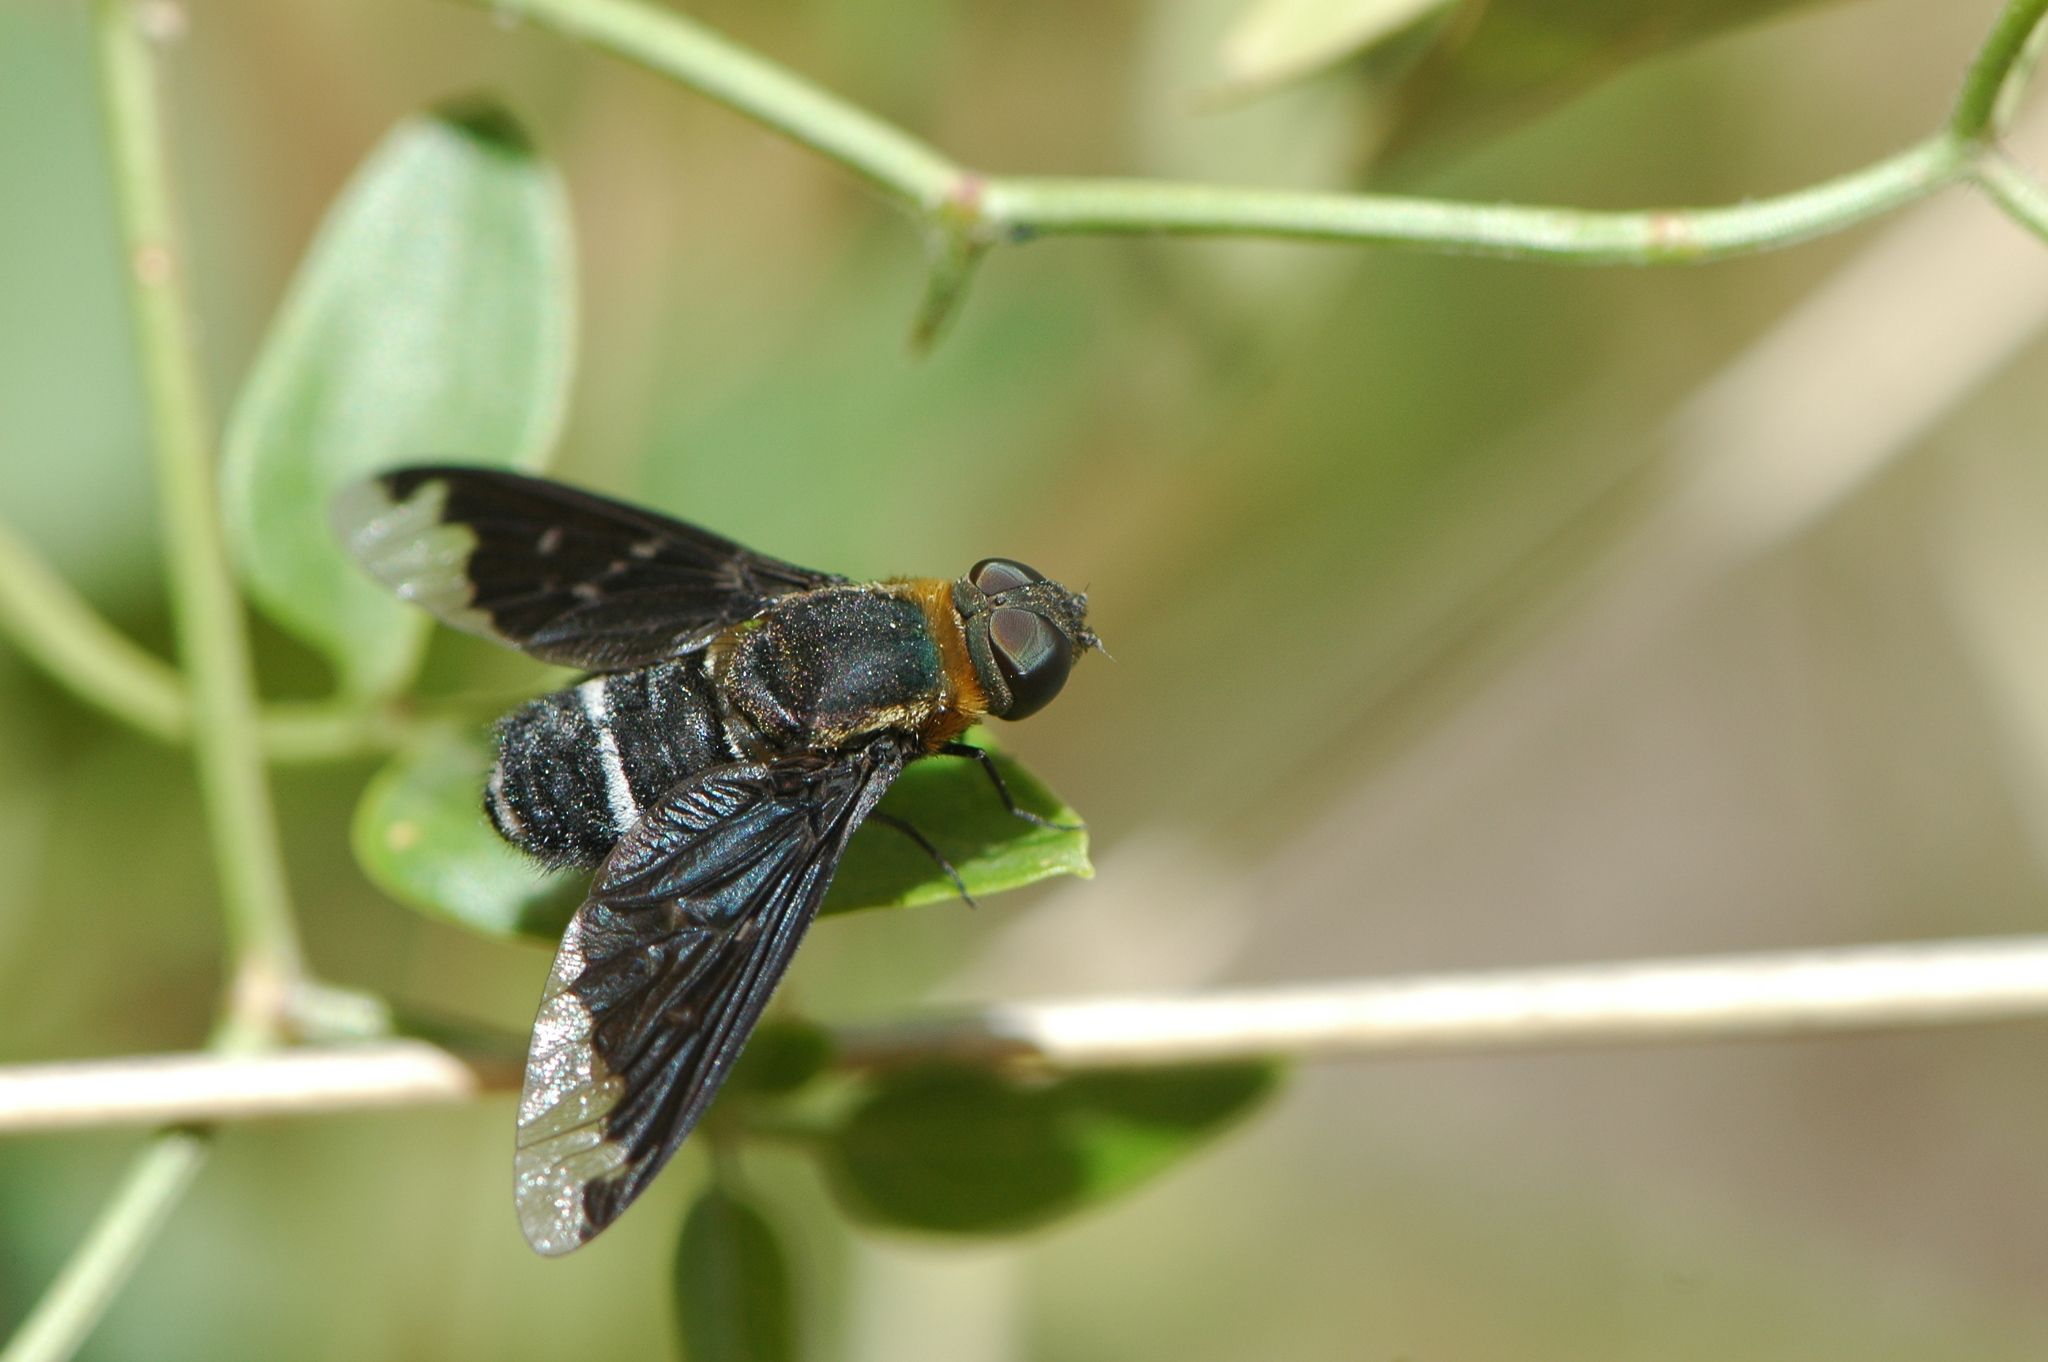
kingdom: Animalia
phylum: Arthropoda
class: Insecta
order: Diptera
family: Bombyliidae
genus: Hemipenthes
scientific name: Hemipenthes velutina
